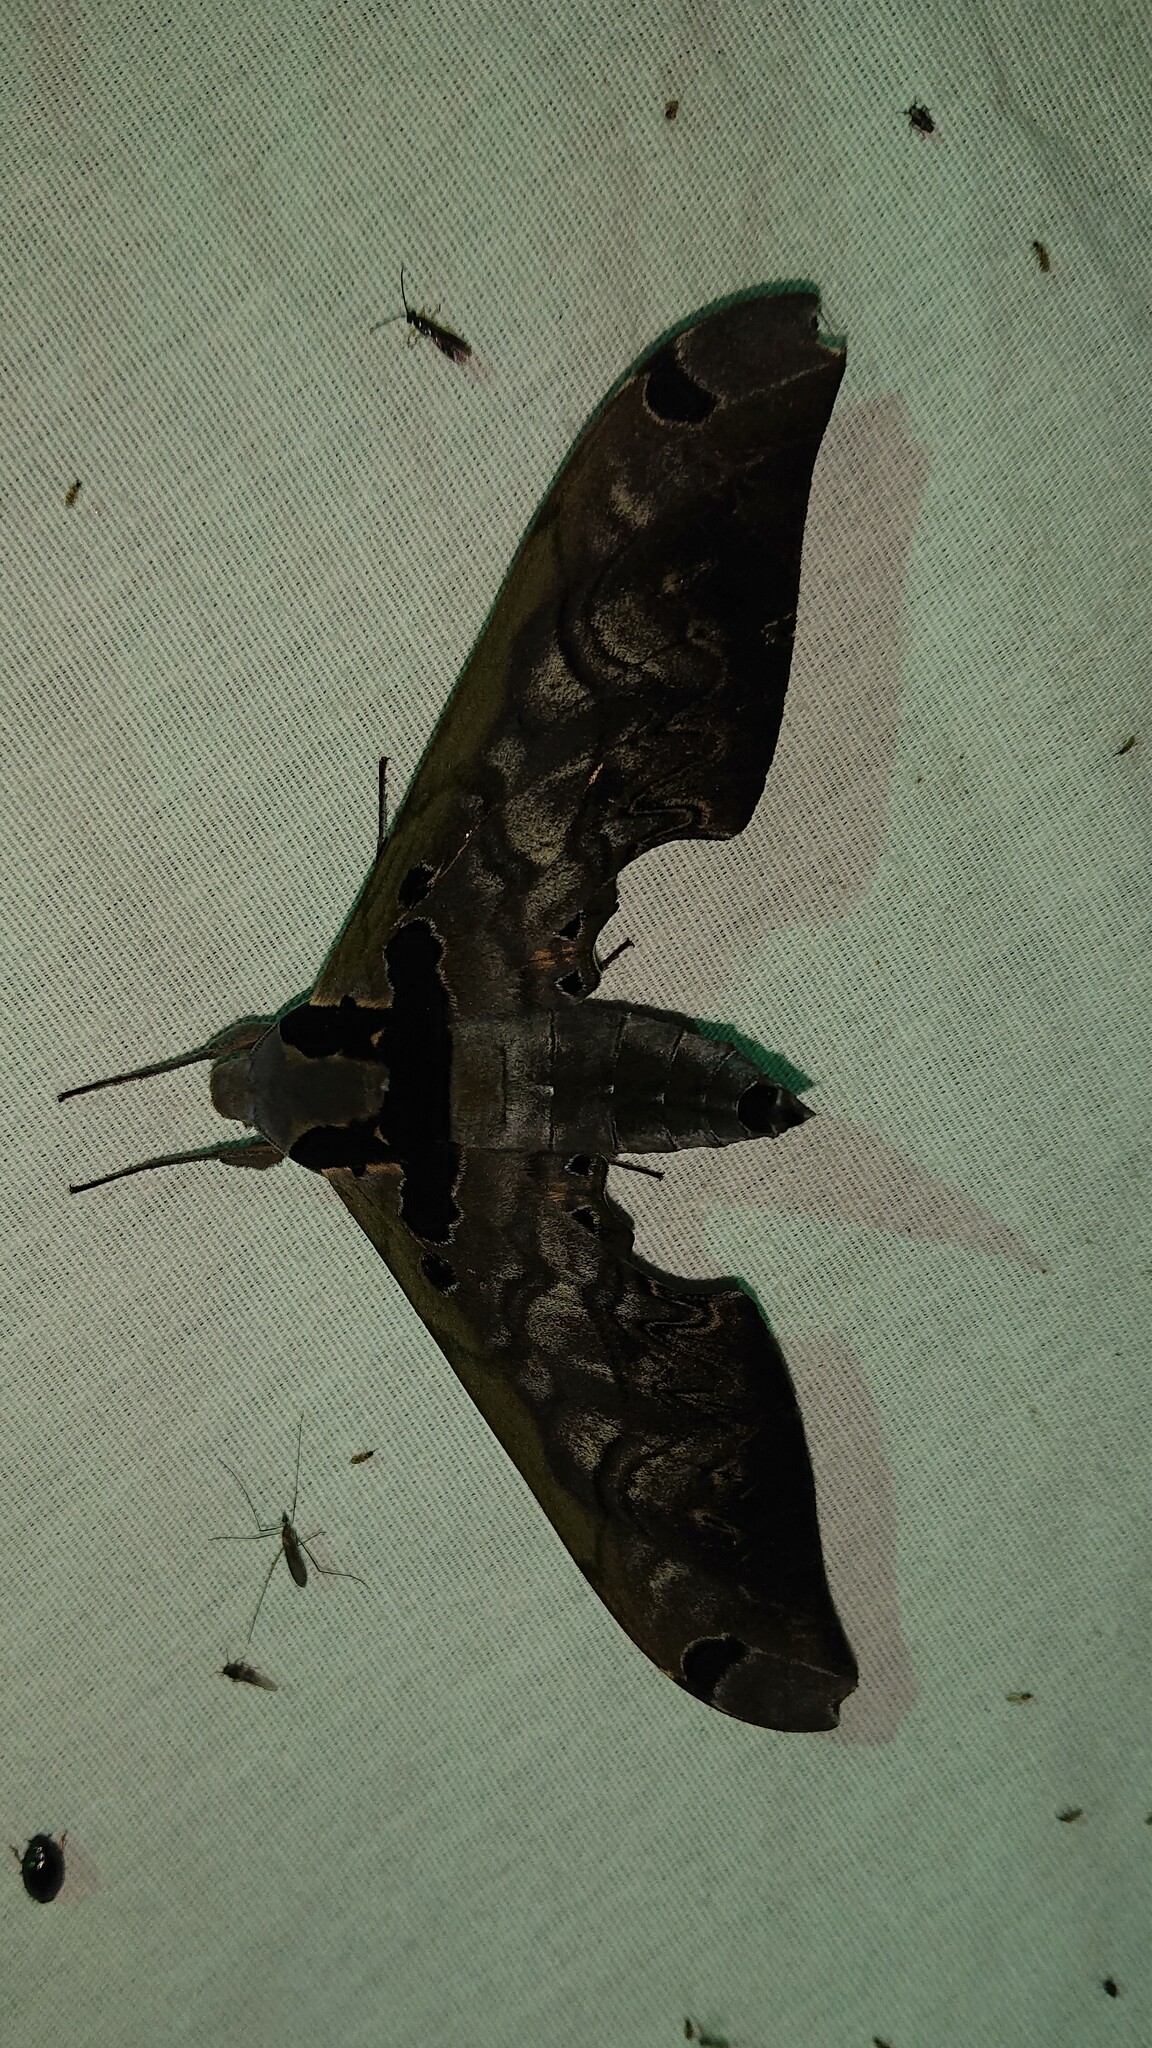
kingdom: Animalia
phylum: Arthropoda
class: Insecta
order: Lepidoptera
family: Sphingidae
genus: Adhemarius
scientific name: Adhemarius sexoculata
